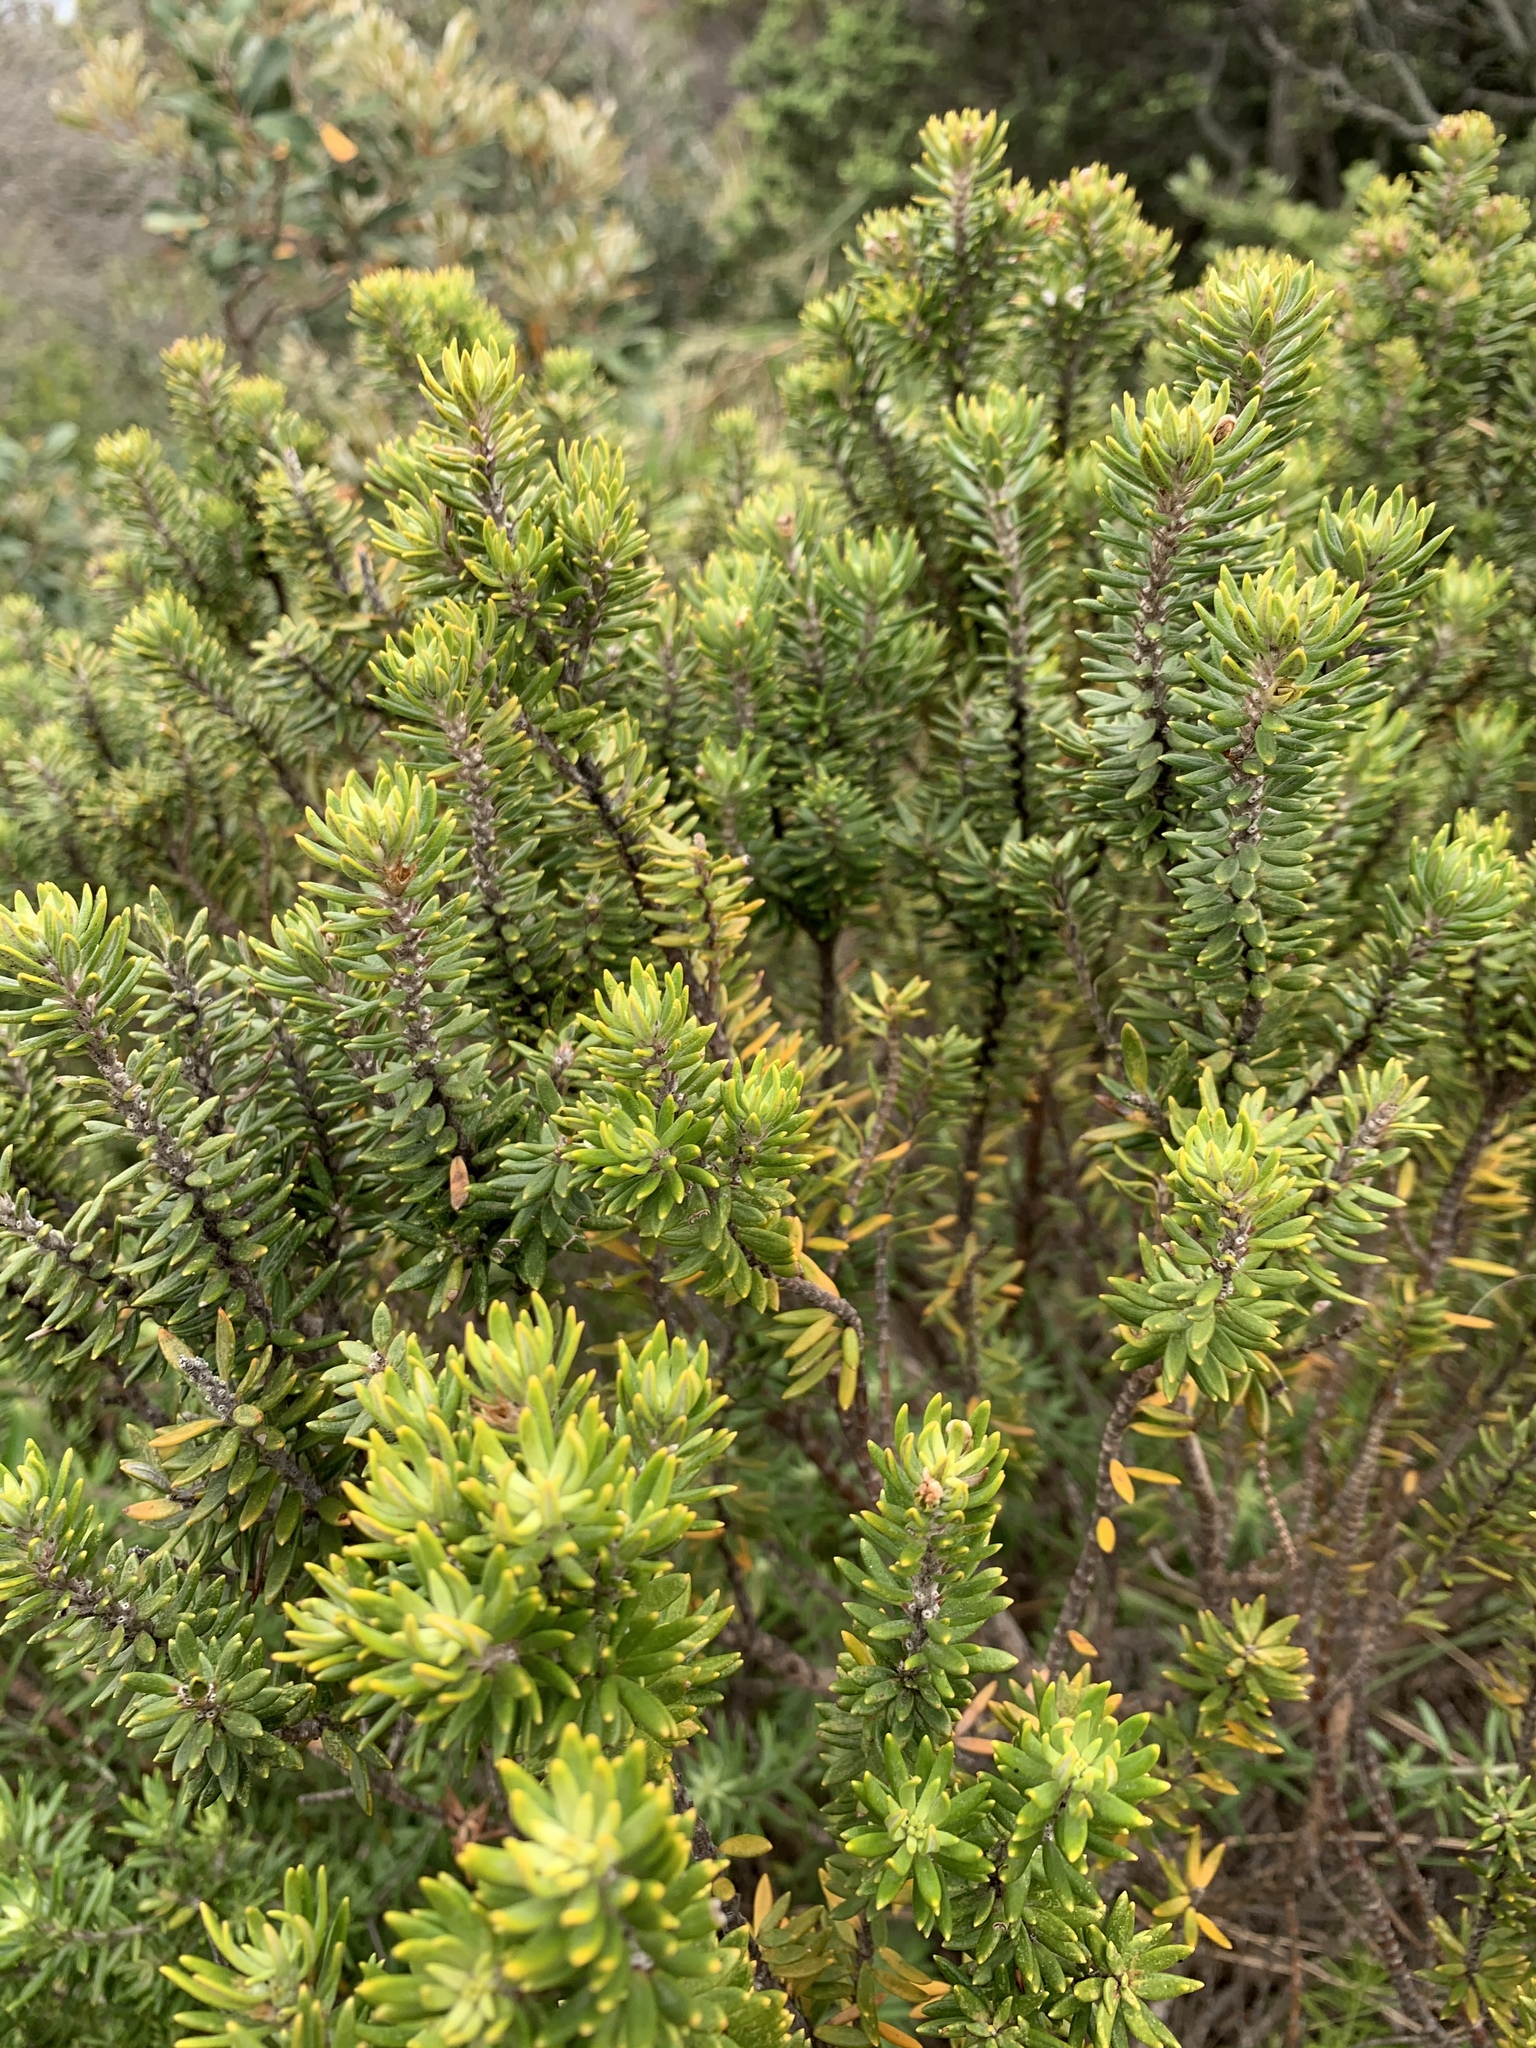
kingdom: Plantae
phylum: Tracheophyta
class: Magnoliopsida
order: Lamiales
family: Lamiaceae
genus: Westringia
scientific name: Westringia fruticosa
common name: Coastal-rosemary
